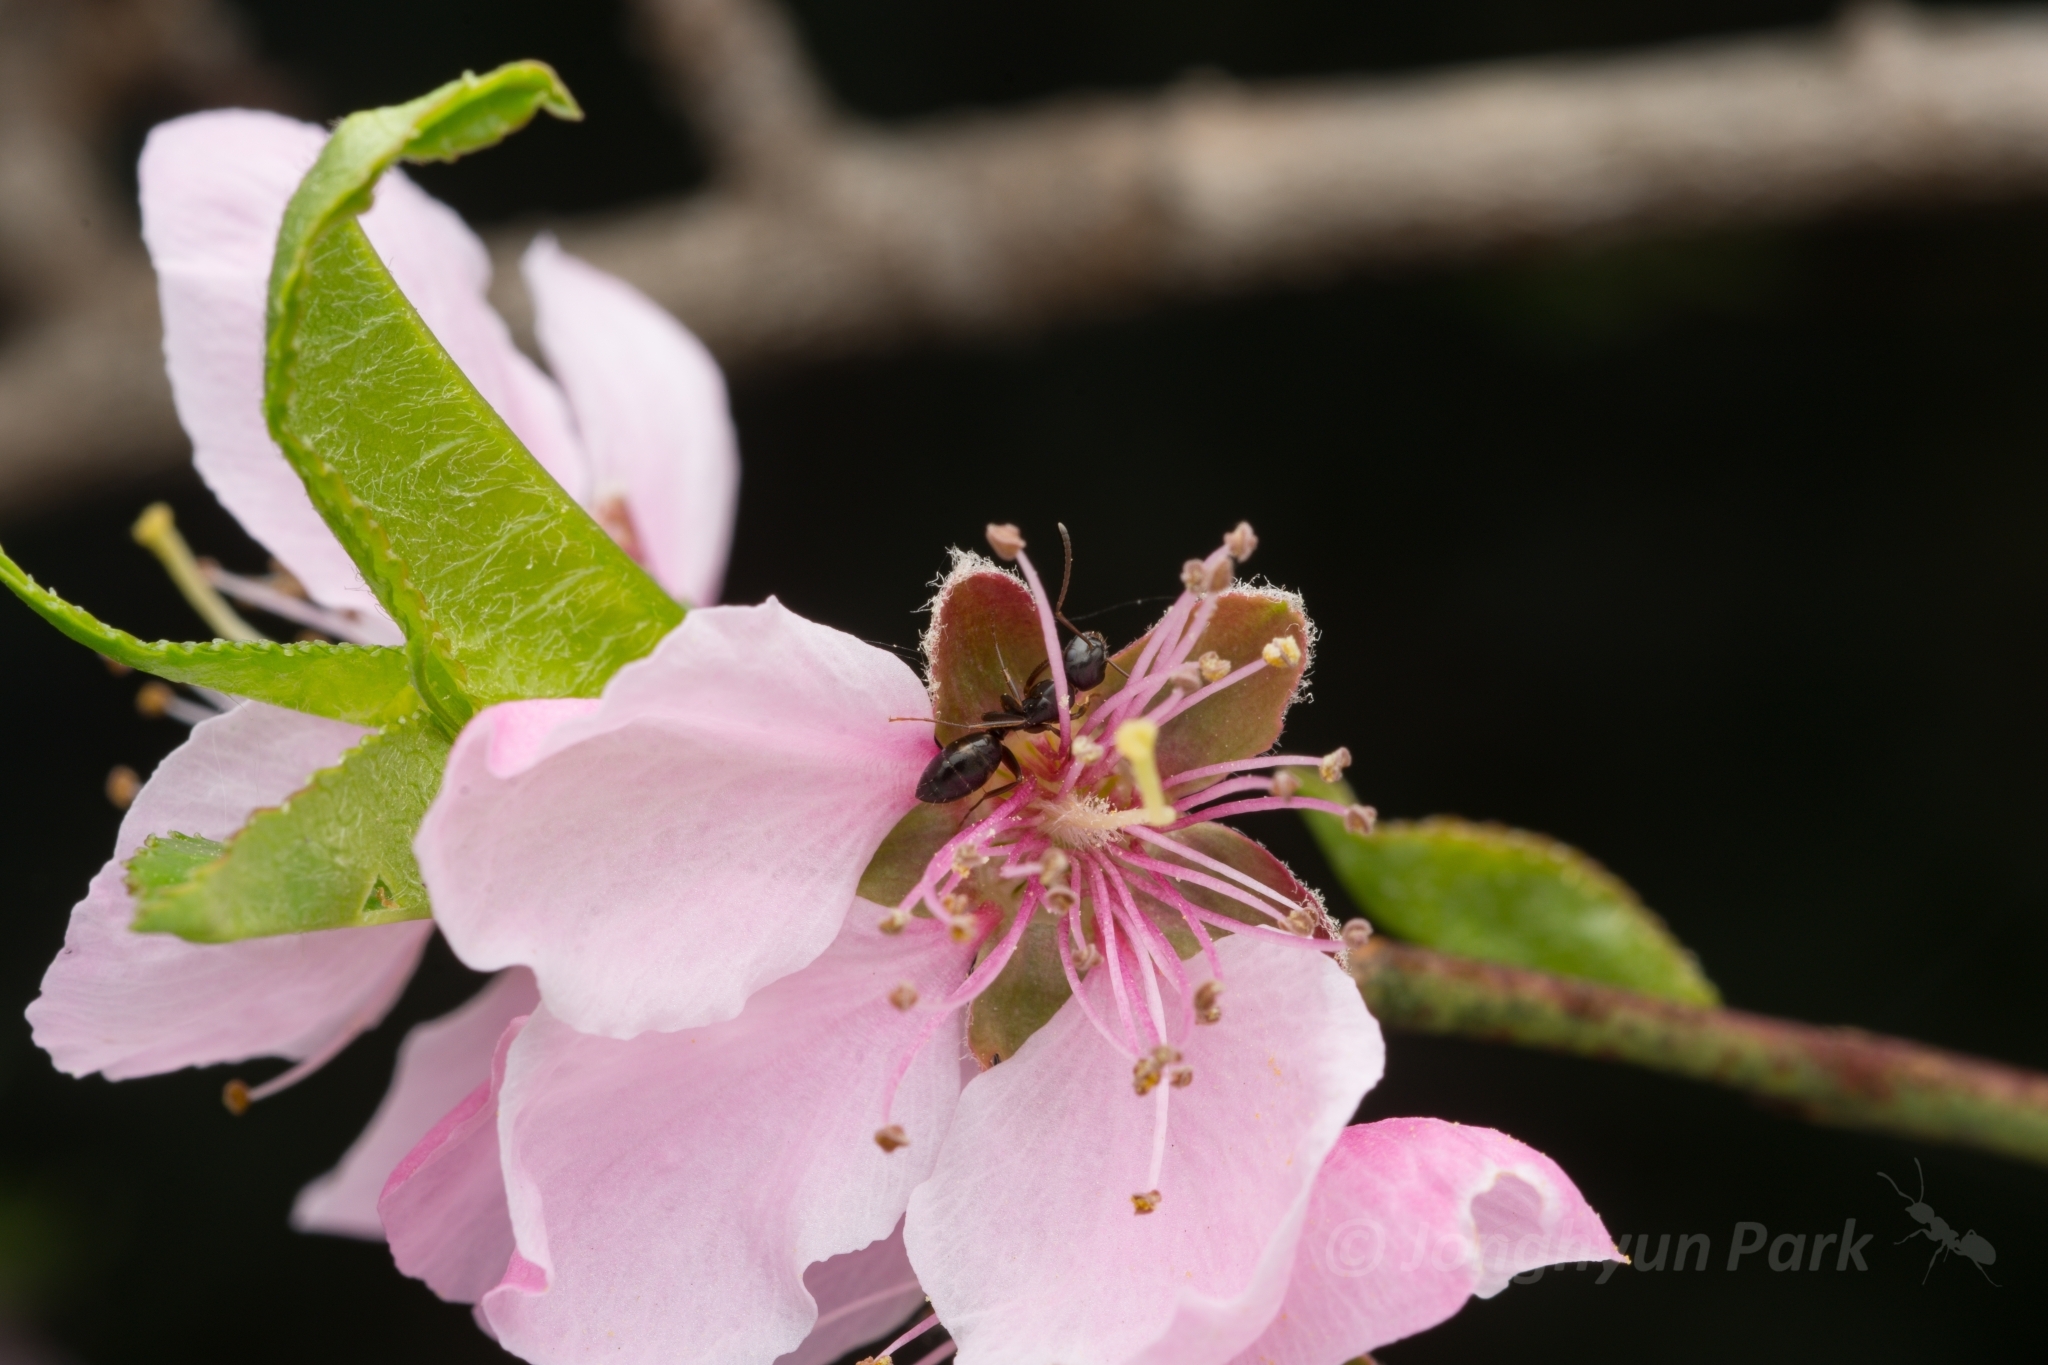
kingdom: Animalia
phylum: Arthropoda
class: Insecta
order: Hymenoptera
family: Formicidae
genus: Camponotus
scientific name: Camponotus quadrinotatus
